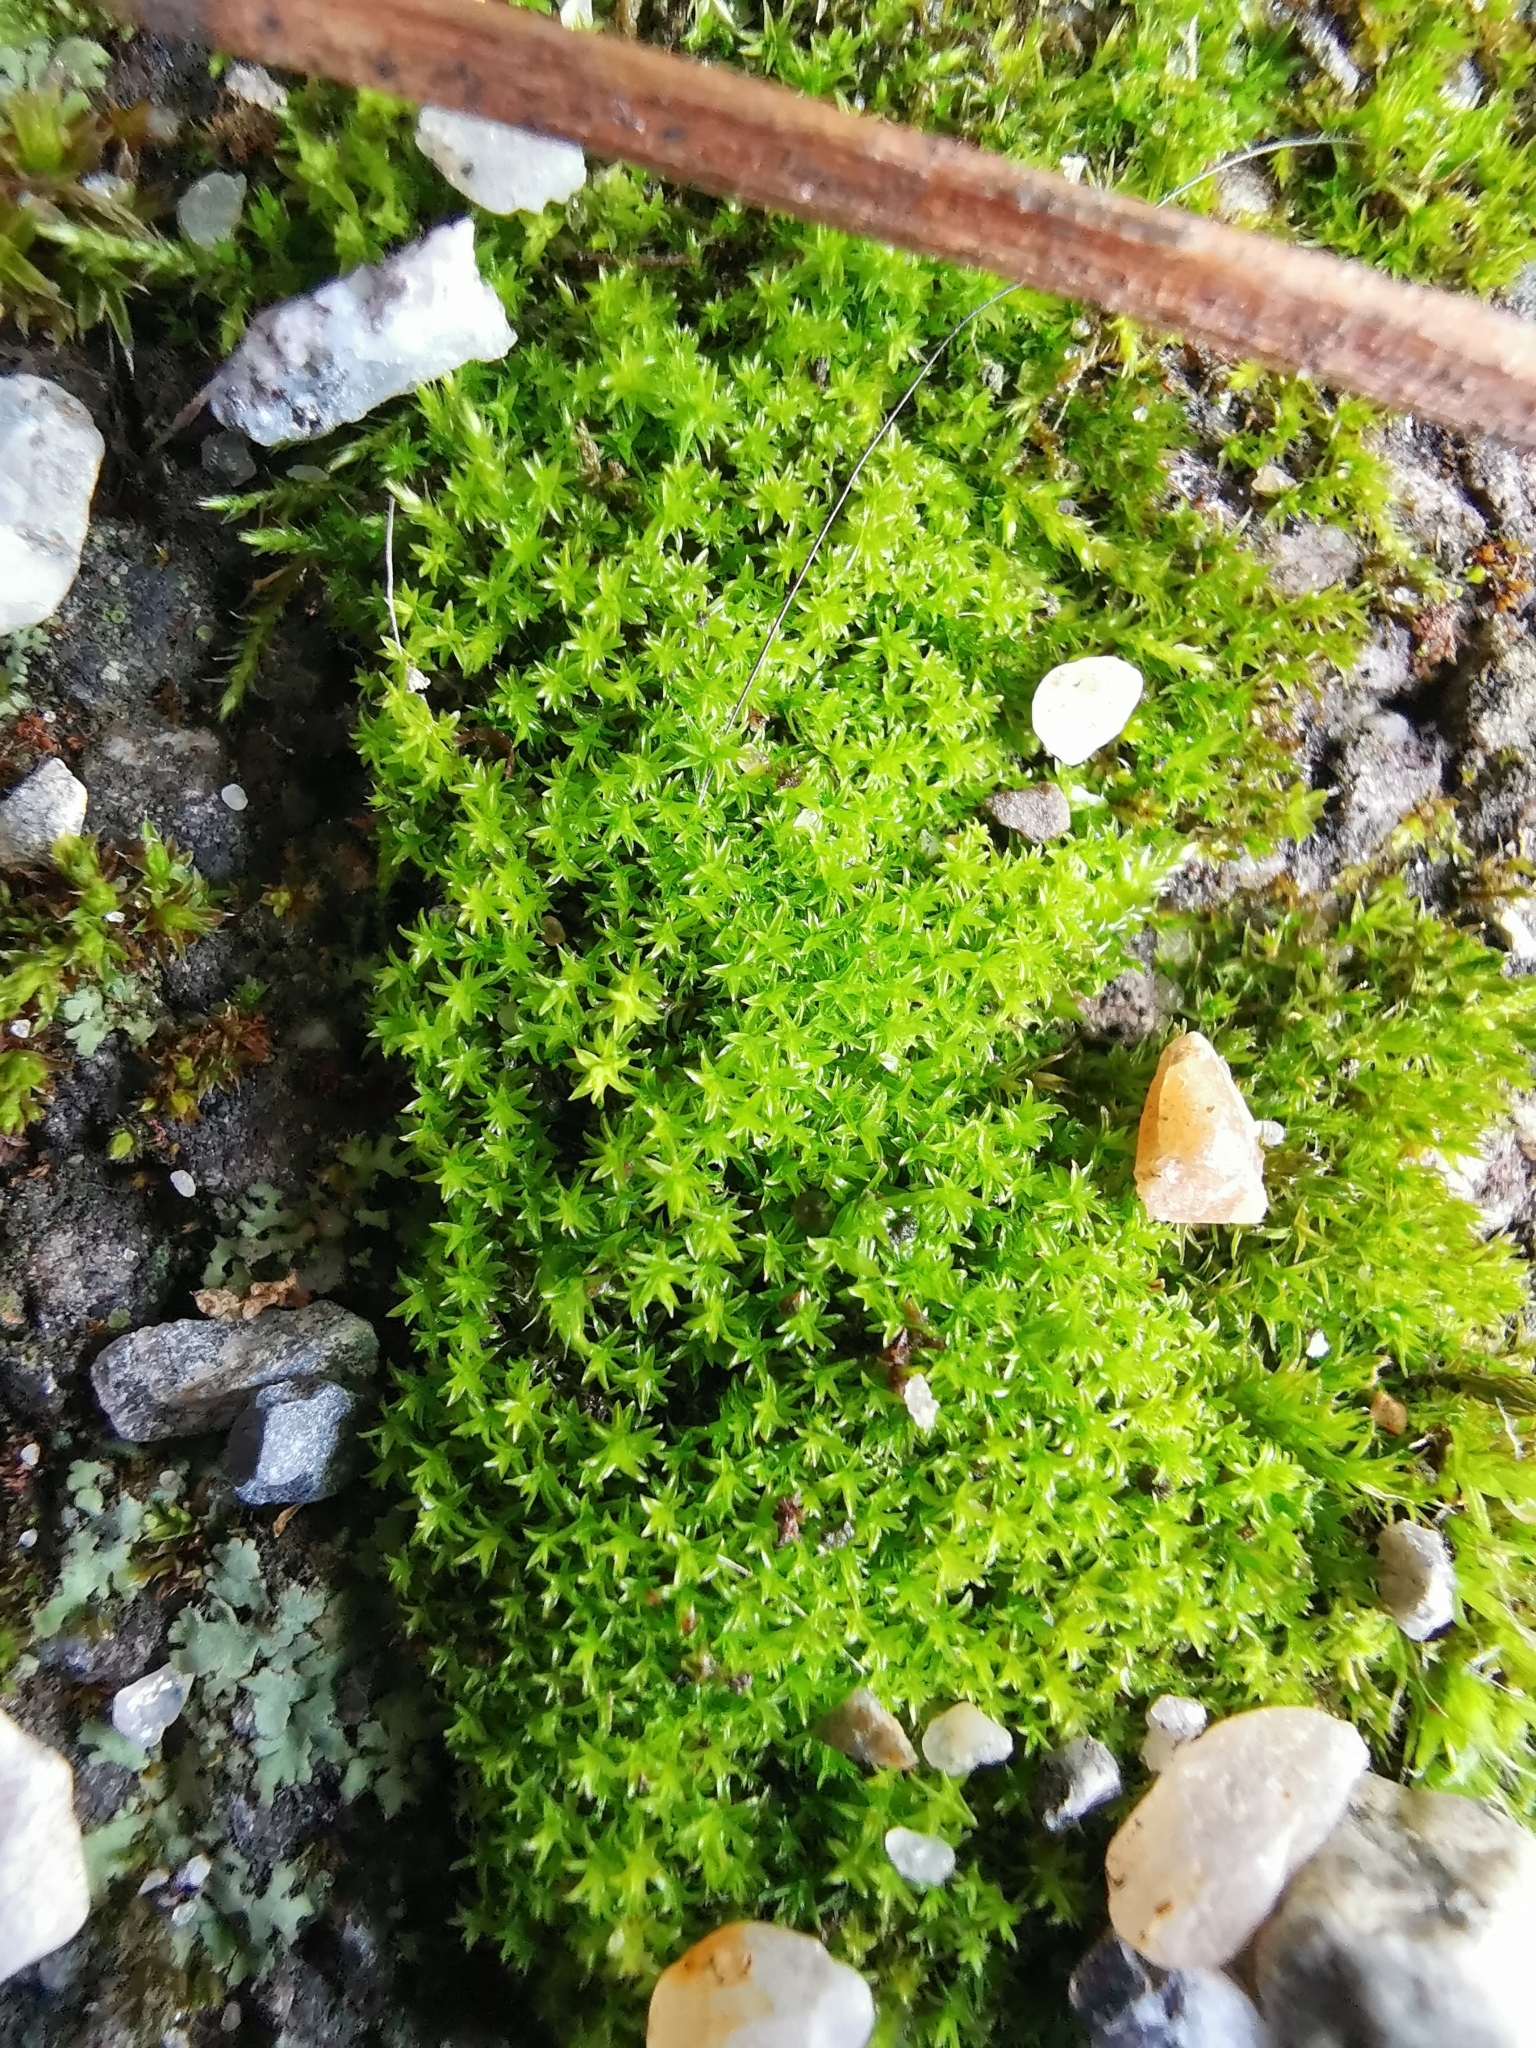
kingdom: Plantae
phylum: Bryophyta
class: Bryopsida
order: Pottiales
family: Pottiaceae
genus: Barbula
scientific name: Barbula unguiculata
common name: Prickly beard moss
